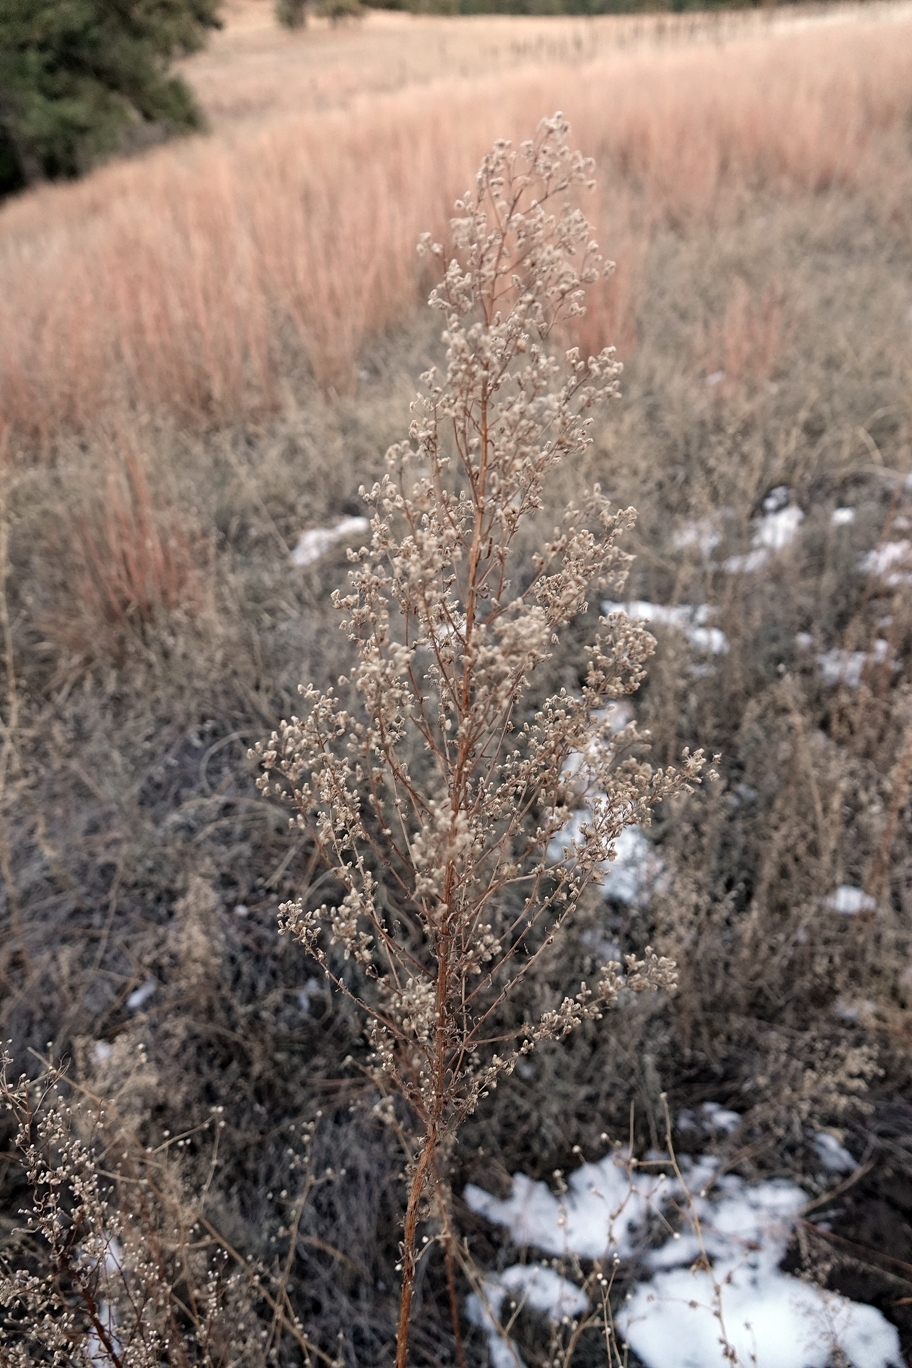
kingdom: Plantae
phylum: Tracheophyta
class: Magnoliopsida
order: Asterales
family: Asteraceae
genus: Erigeron
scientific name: Erigeron canadensis
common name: Canadian fleabane
